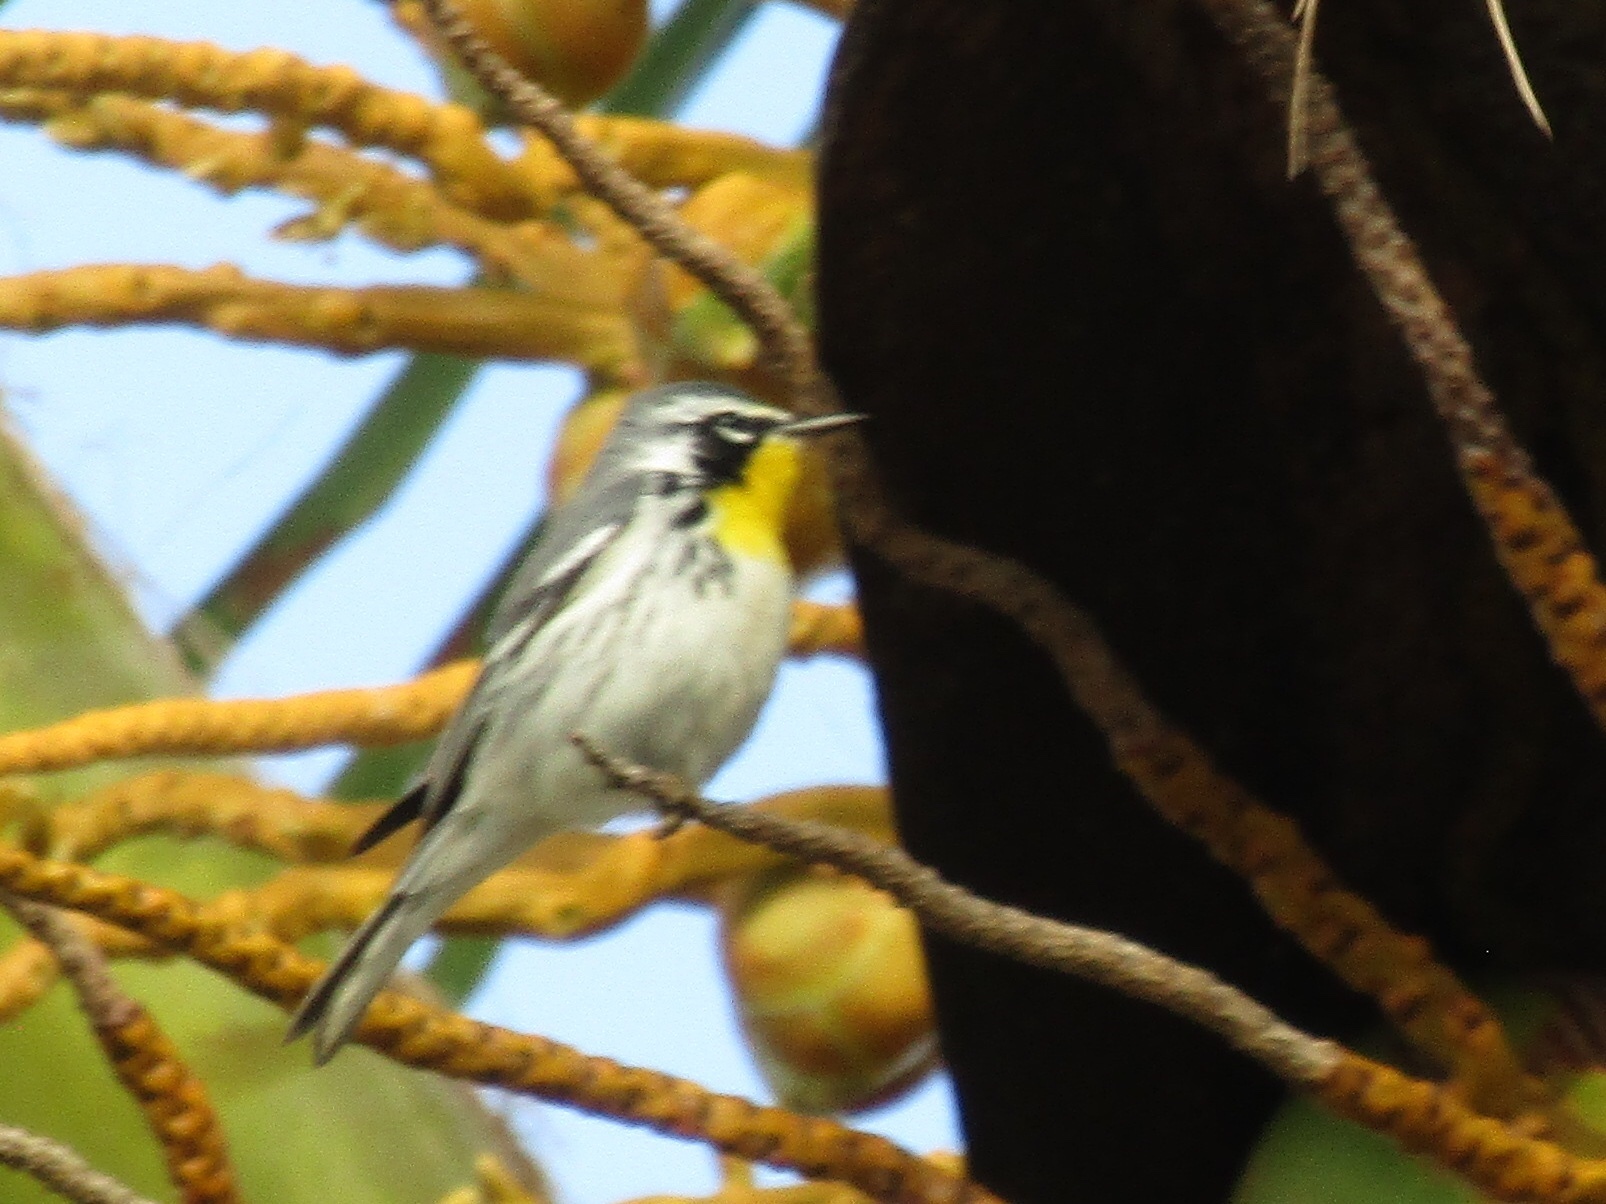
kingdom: Animalia
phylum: Chordata
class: Aves
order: Passeriformes
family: Parulidae
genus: Setophaga
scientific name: Setophaga dominica
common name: Yellow-throated warbler
